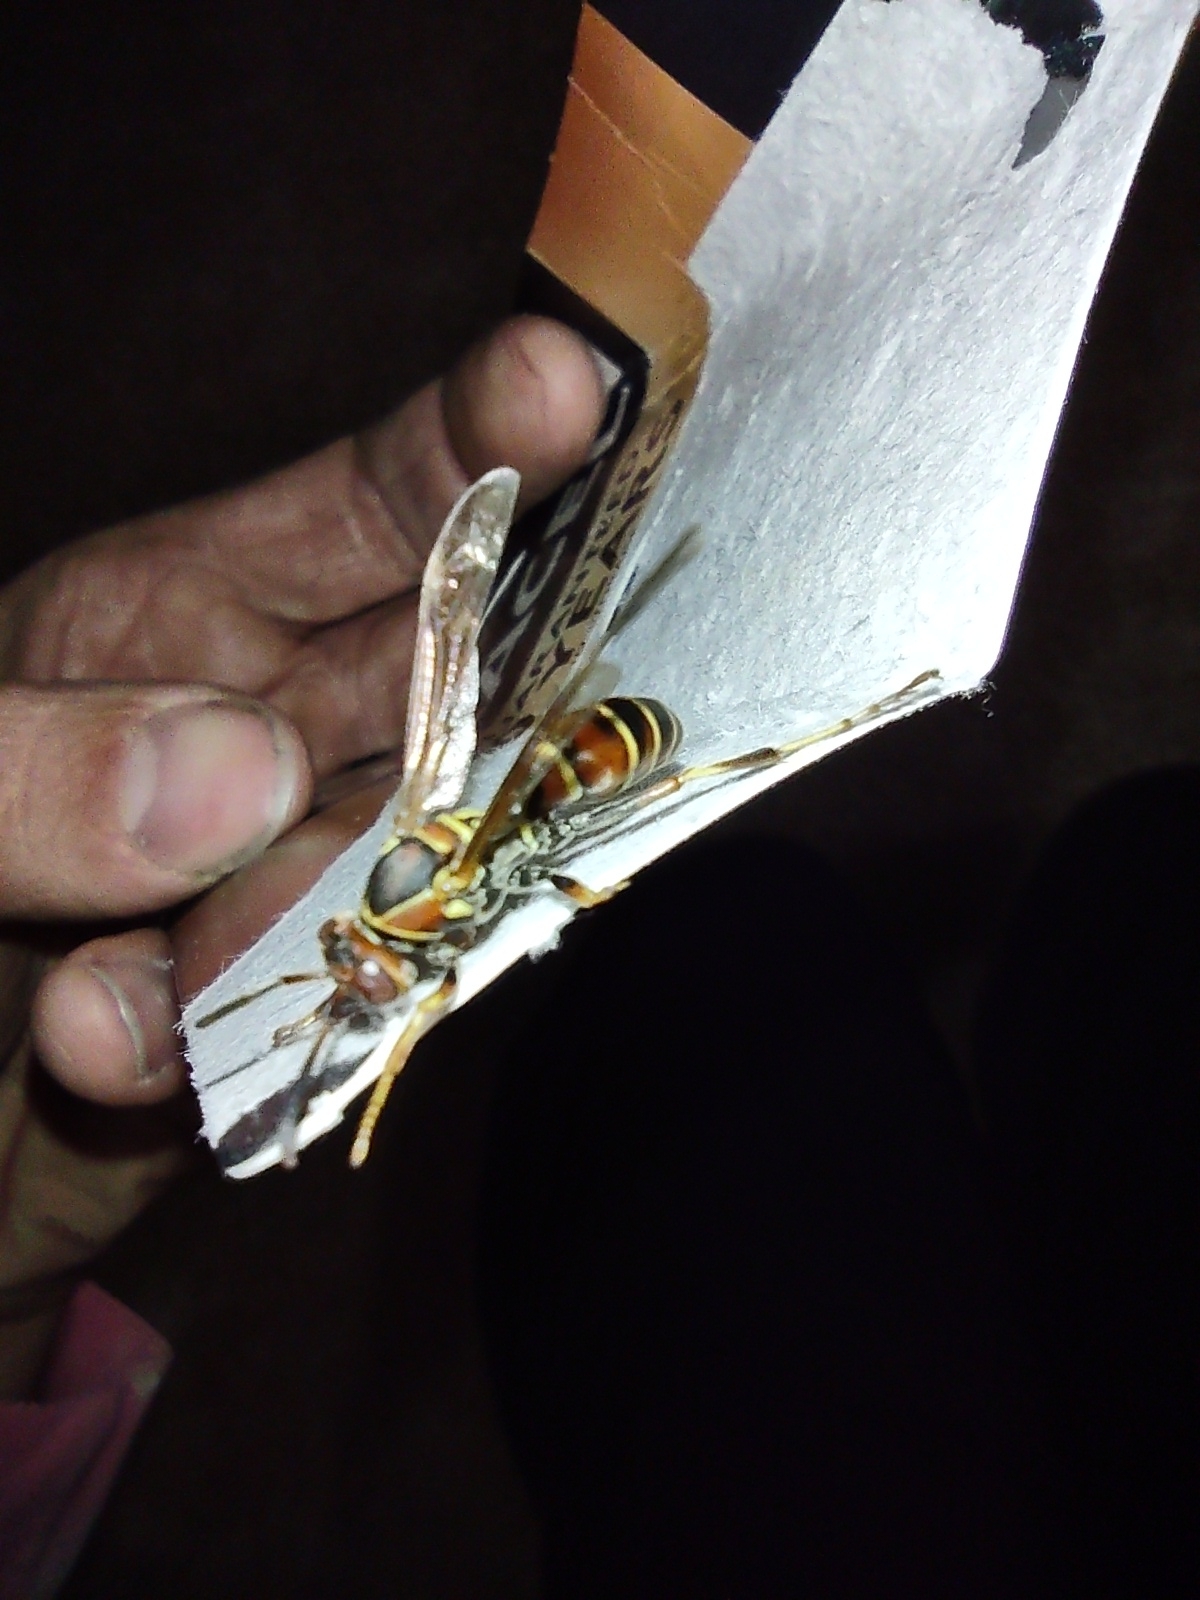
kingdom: Animalia
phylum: Arthropoda
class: Insecta
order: Hymenoptera
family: Eumenidae
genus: Polistes
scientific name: Polistes dorsalis
